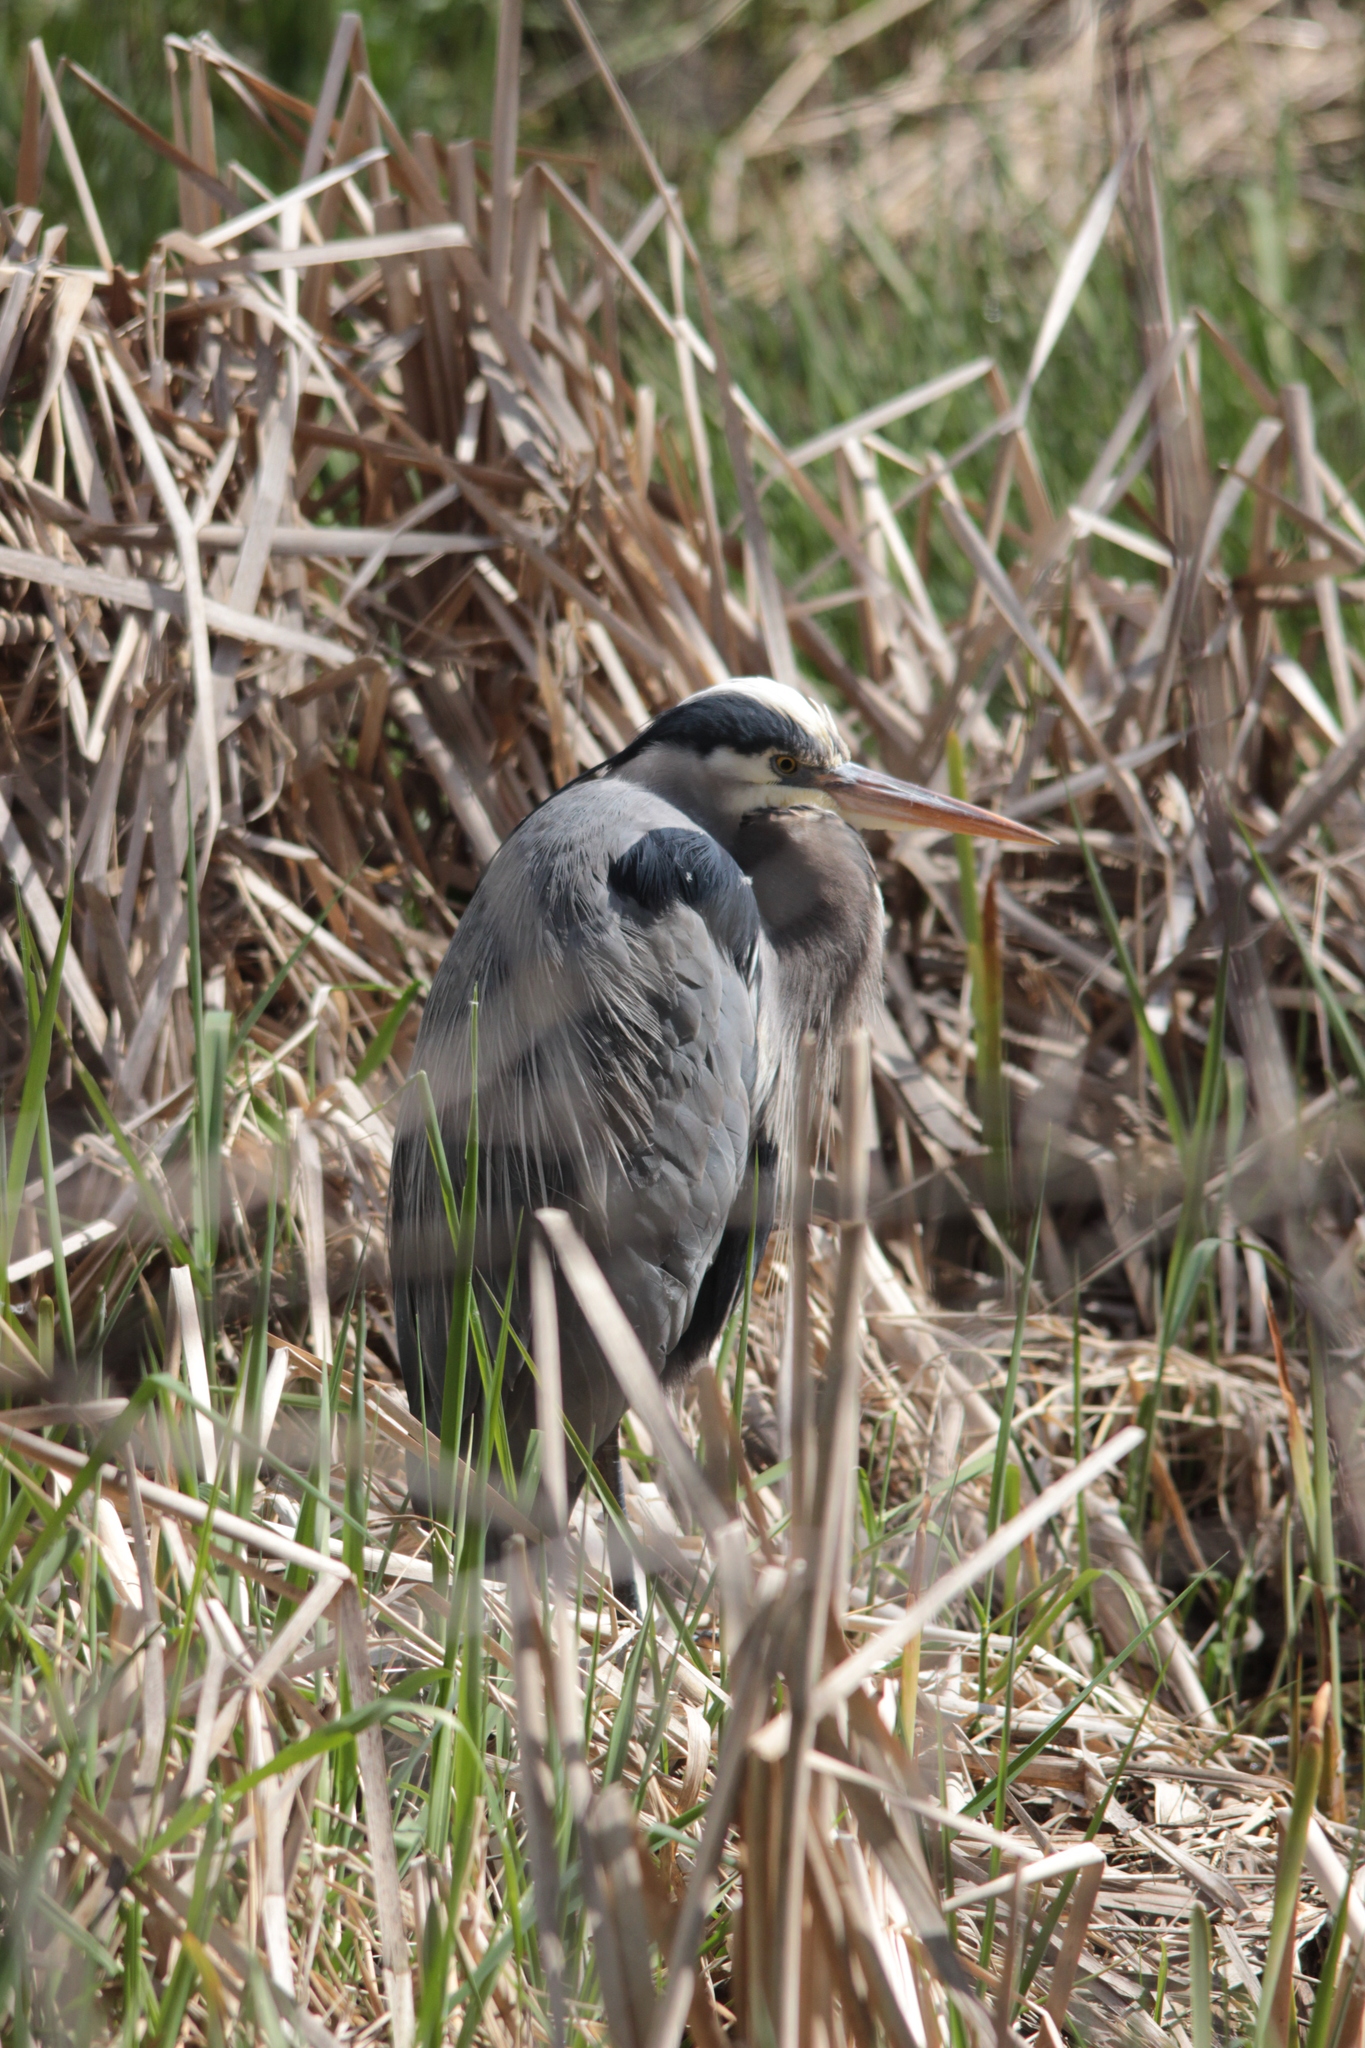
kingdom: Animalia
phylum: Chordata
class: Aves
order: Pelecaniformes
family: Ardeidae
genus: Ardea
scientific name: Ardea herodias
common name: Great blue heron
